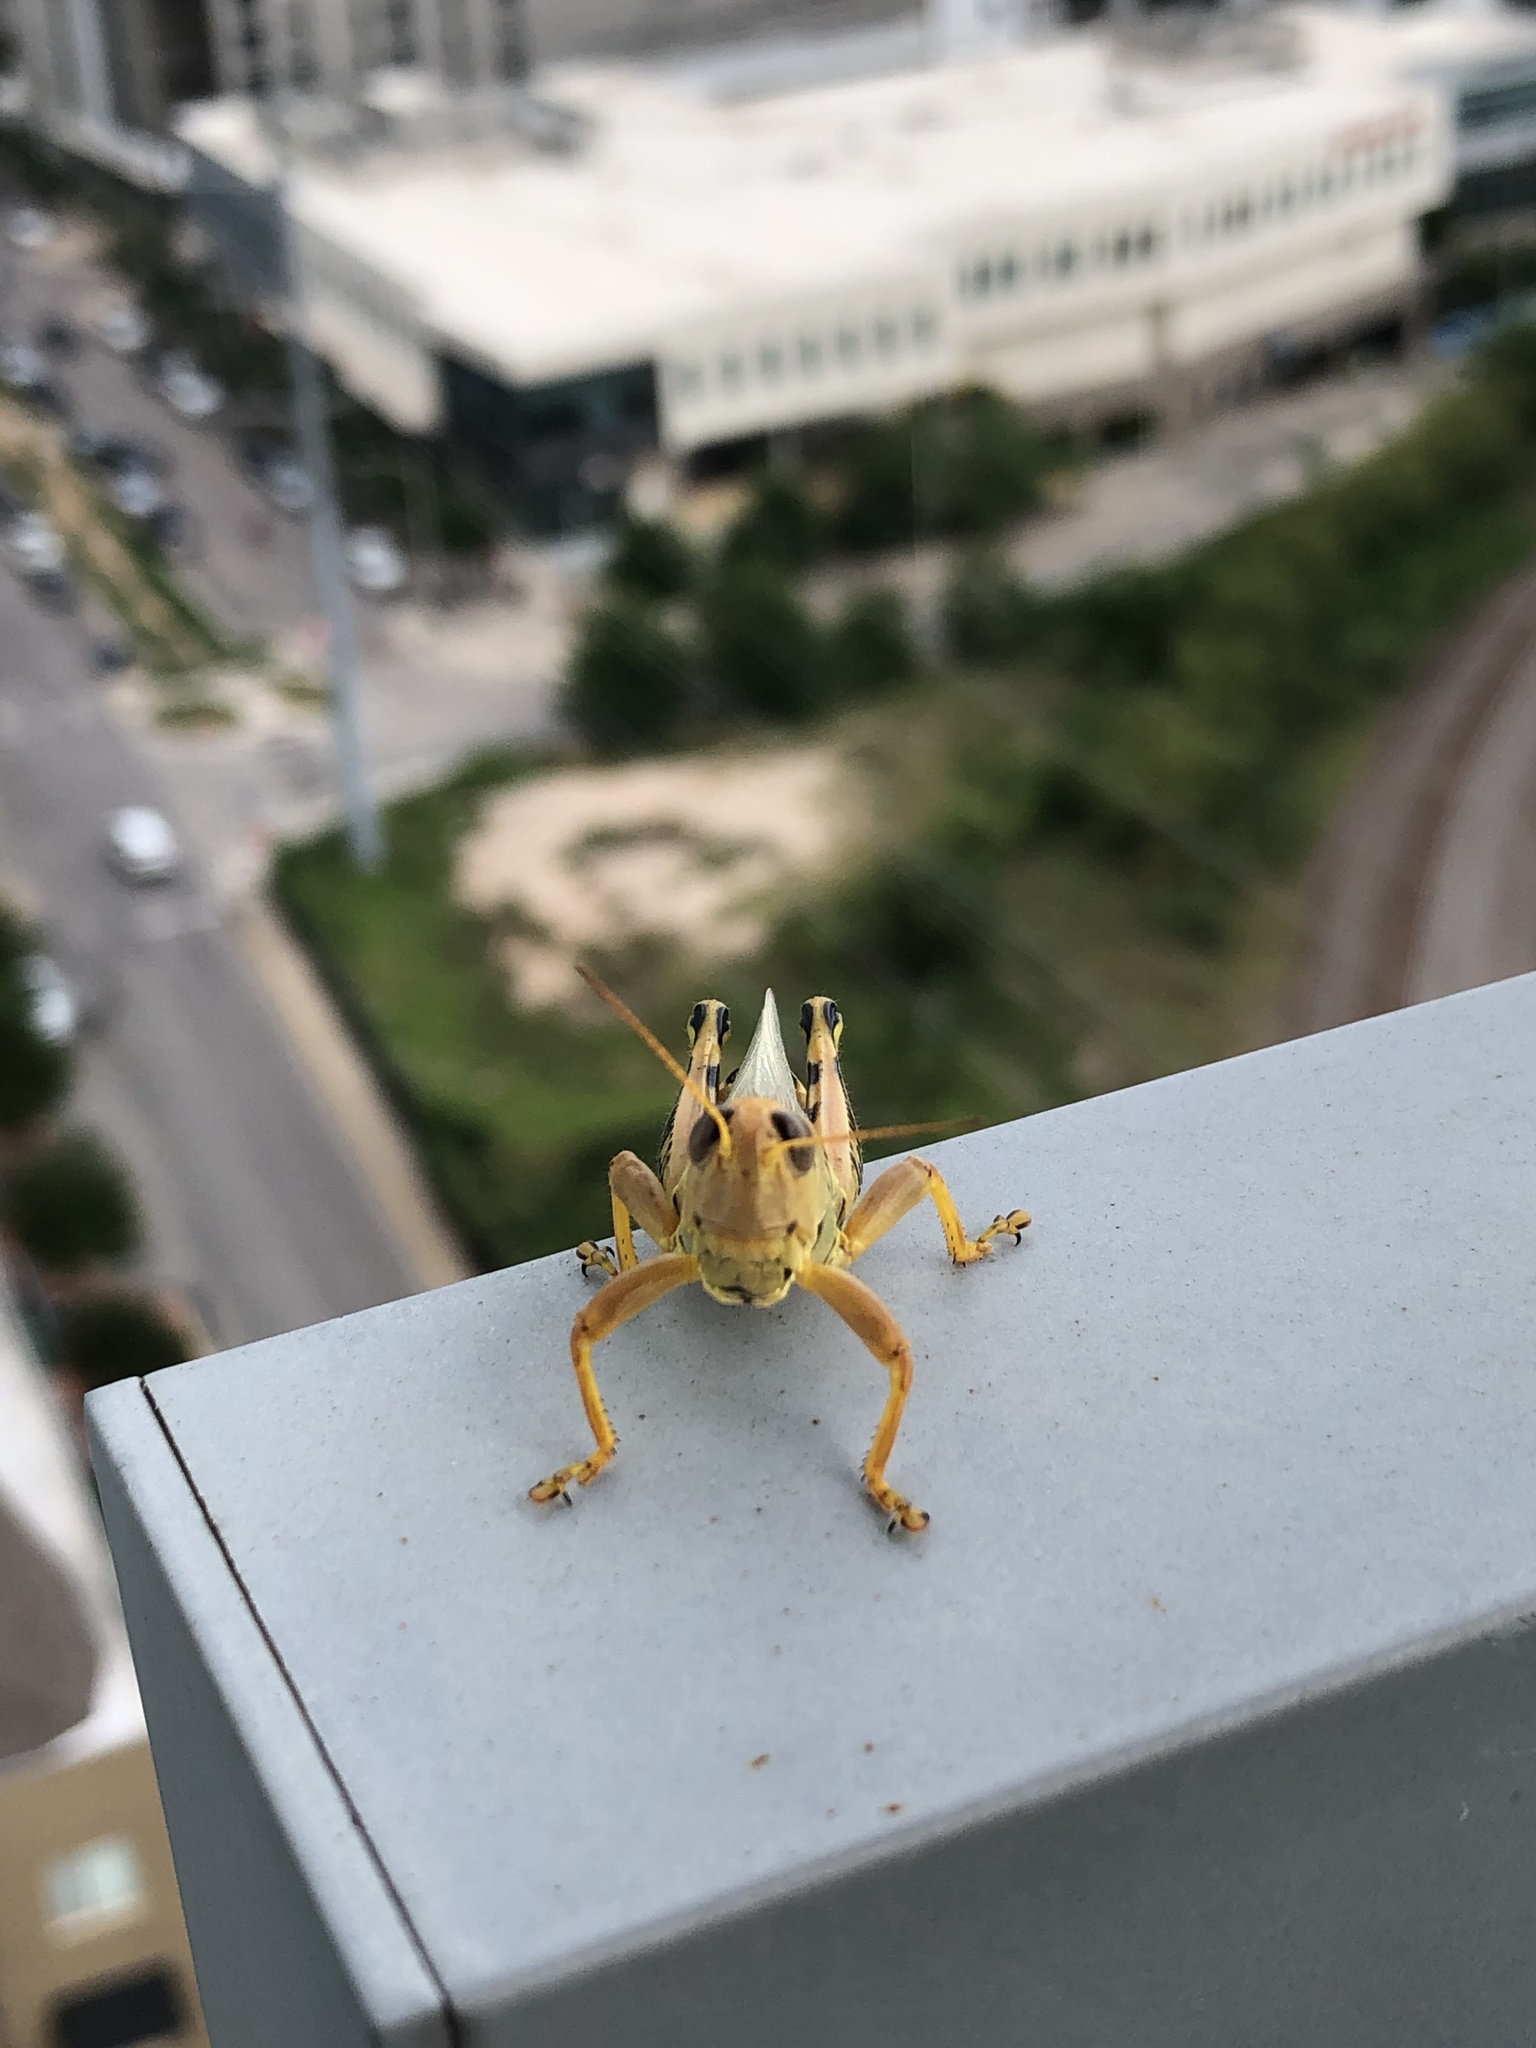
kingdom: Animalia
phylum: Arthropoda
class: Insecta
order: Orthoptera
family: Acrididae
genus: Melanoplus
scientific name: Melanoplus differentialis
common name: Differential grasshopper
